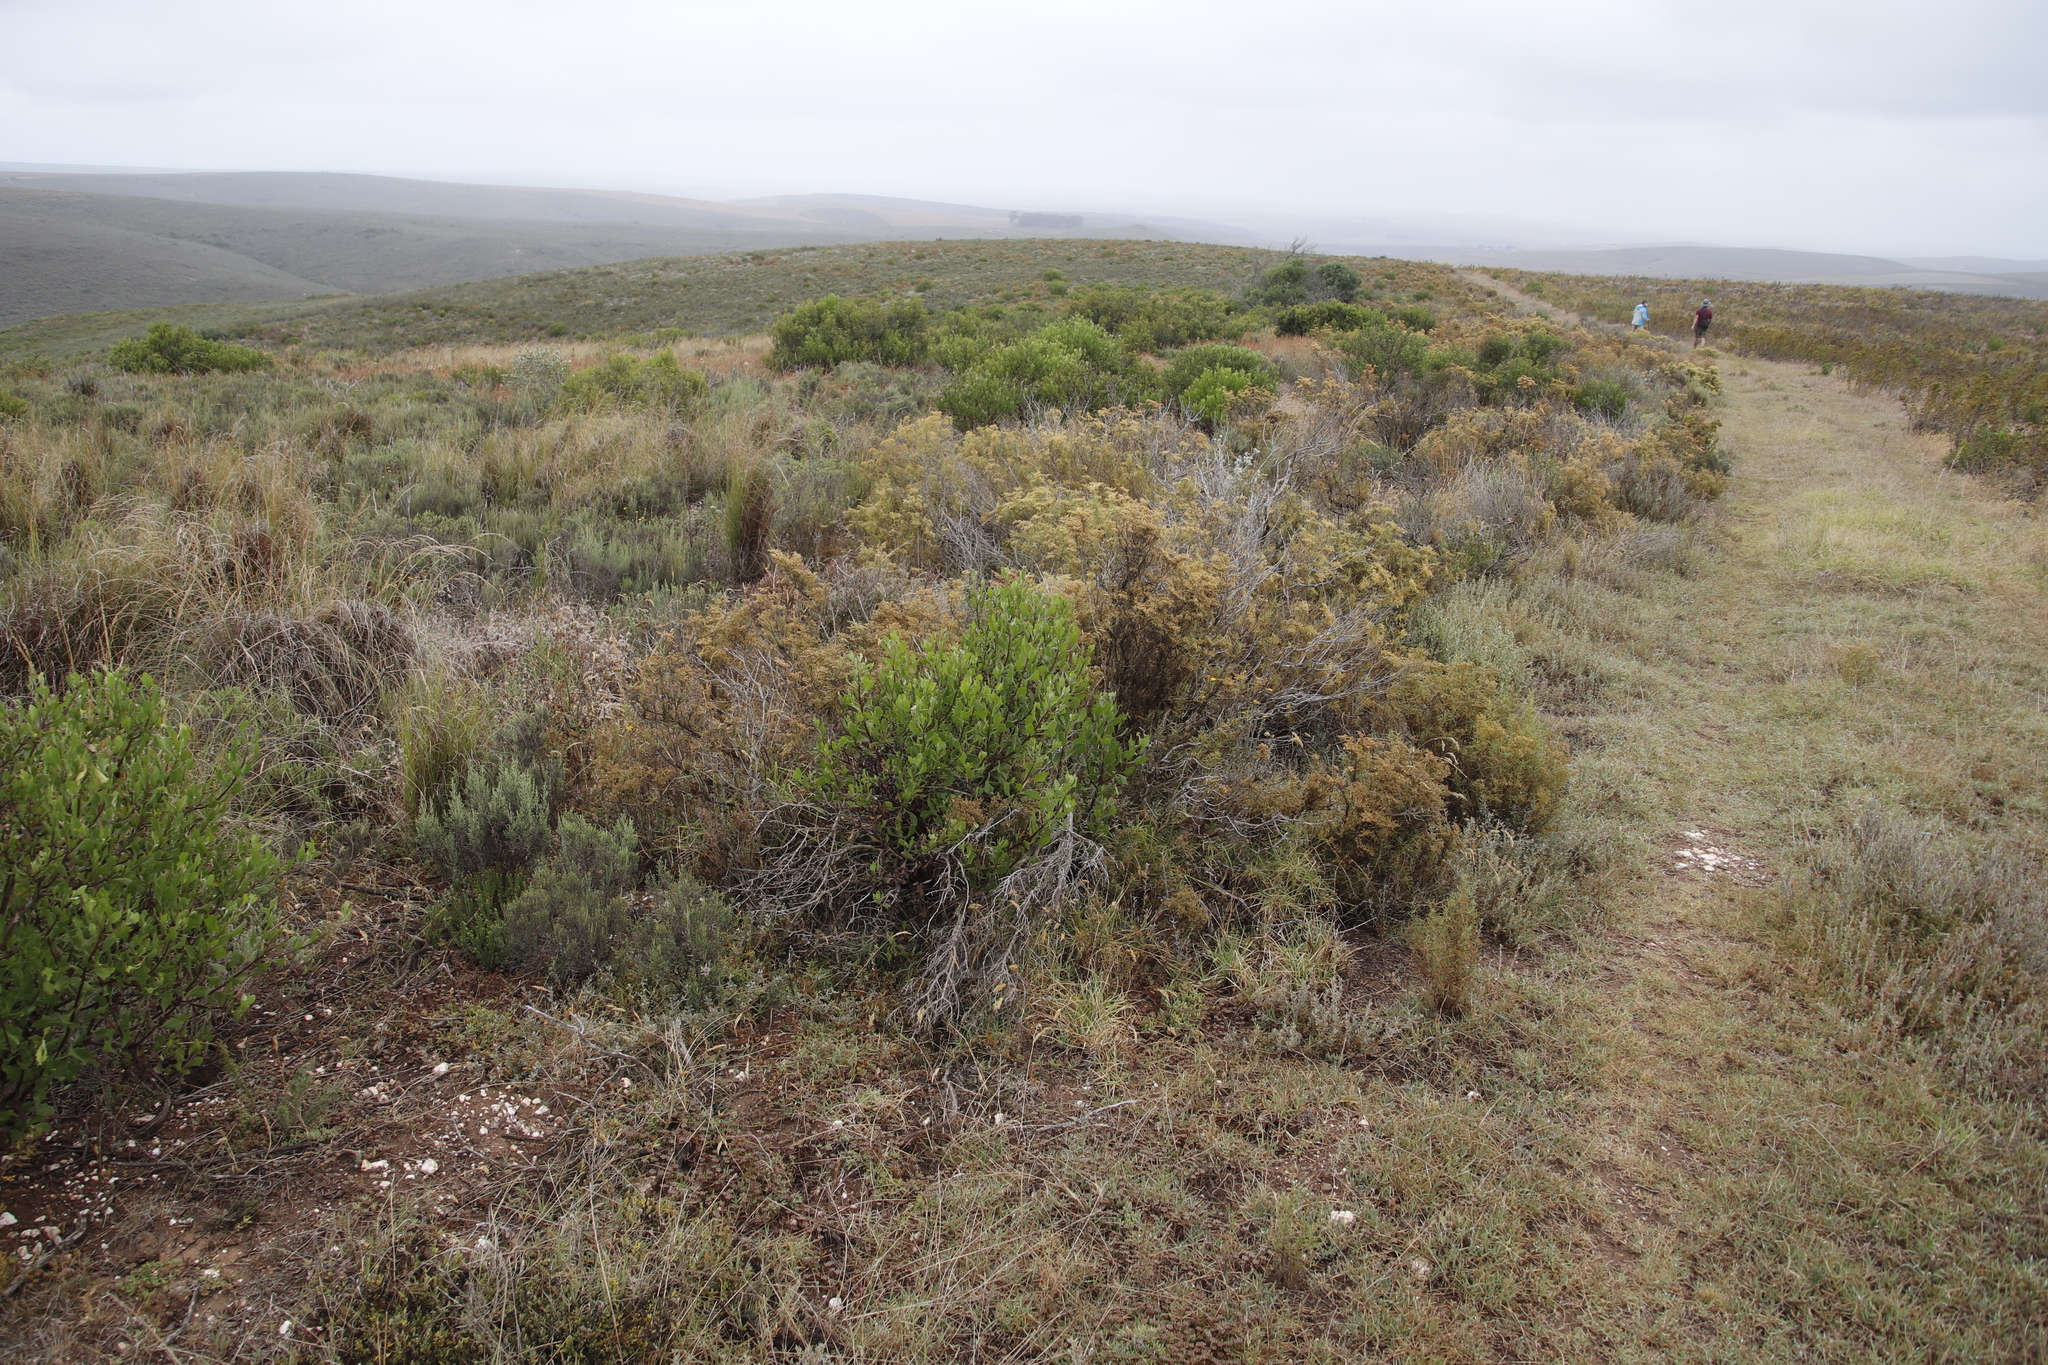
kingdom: Plantae
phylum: Tracheophyta
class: Magnoliopsida
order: Asterales
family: Asteraceae
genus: Osteospermum
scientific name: Osteospermum moniliferum
